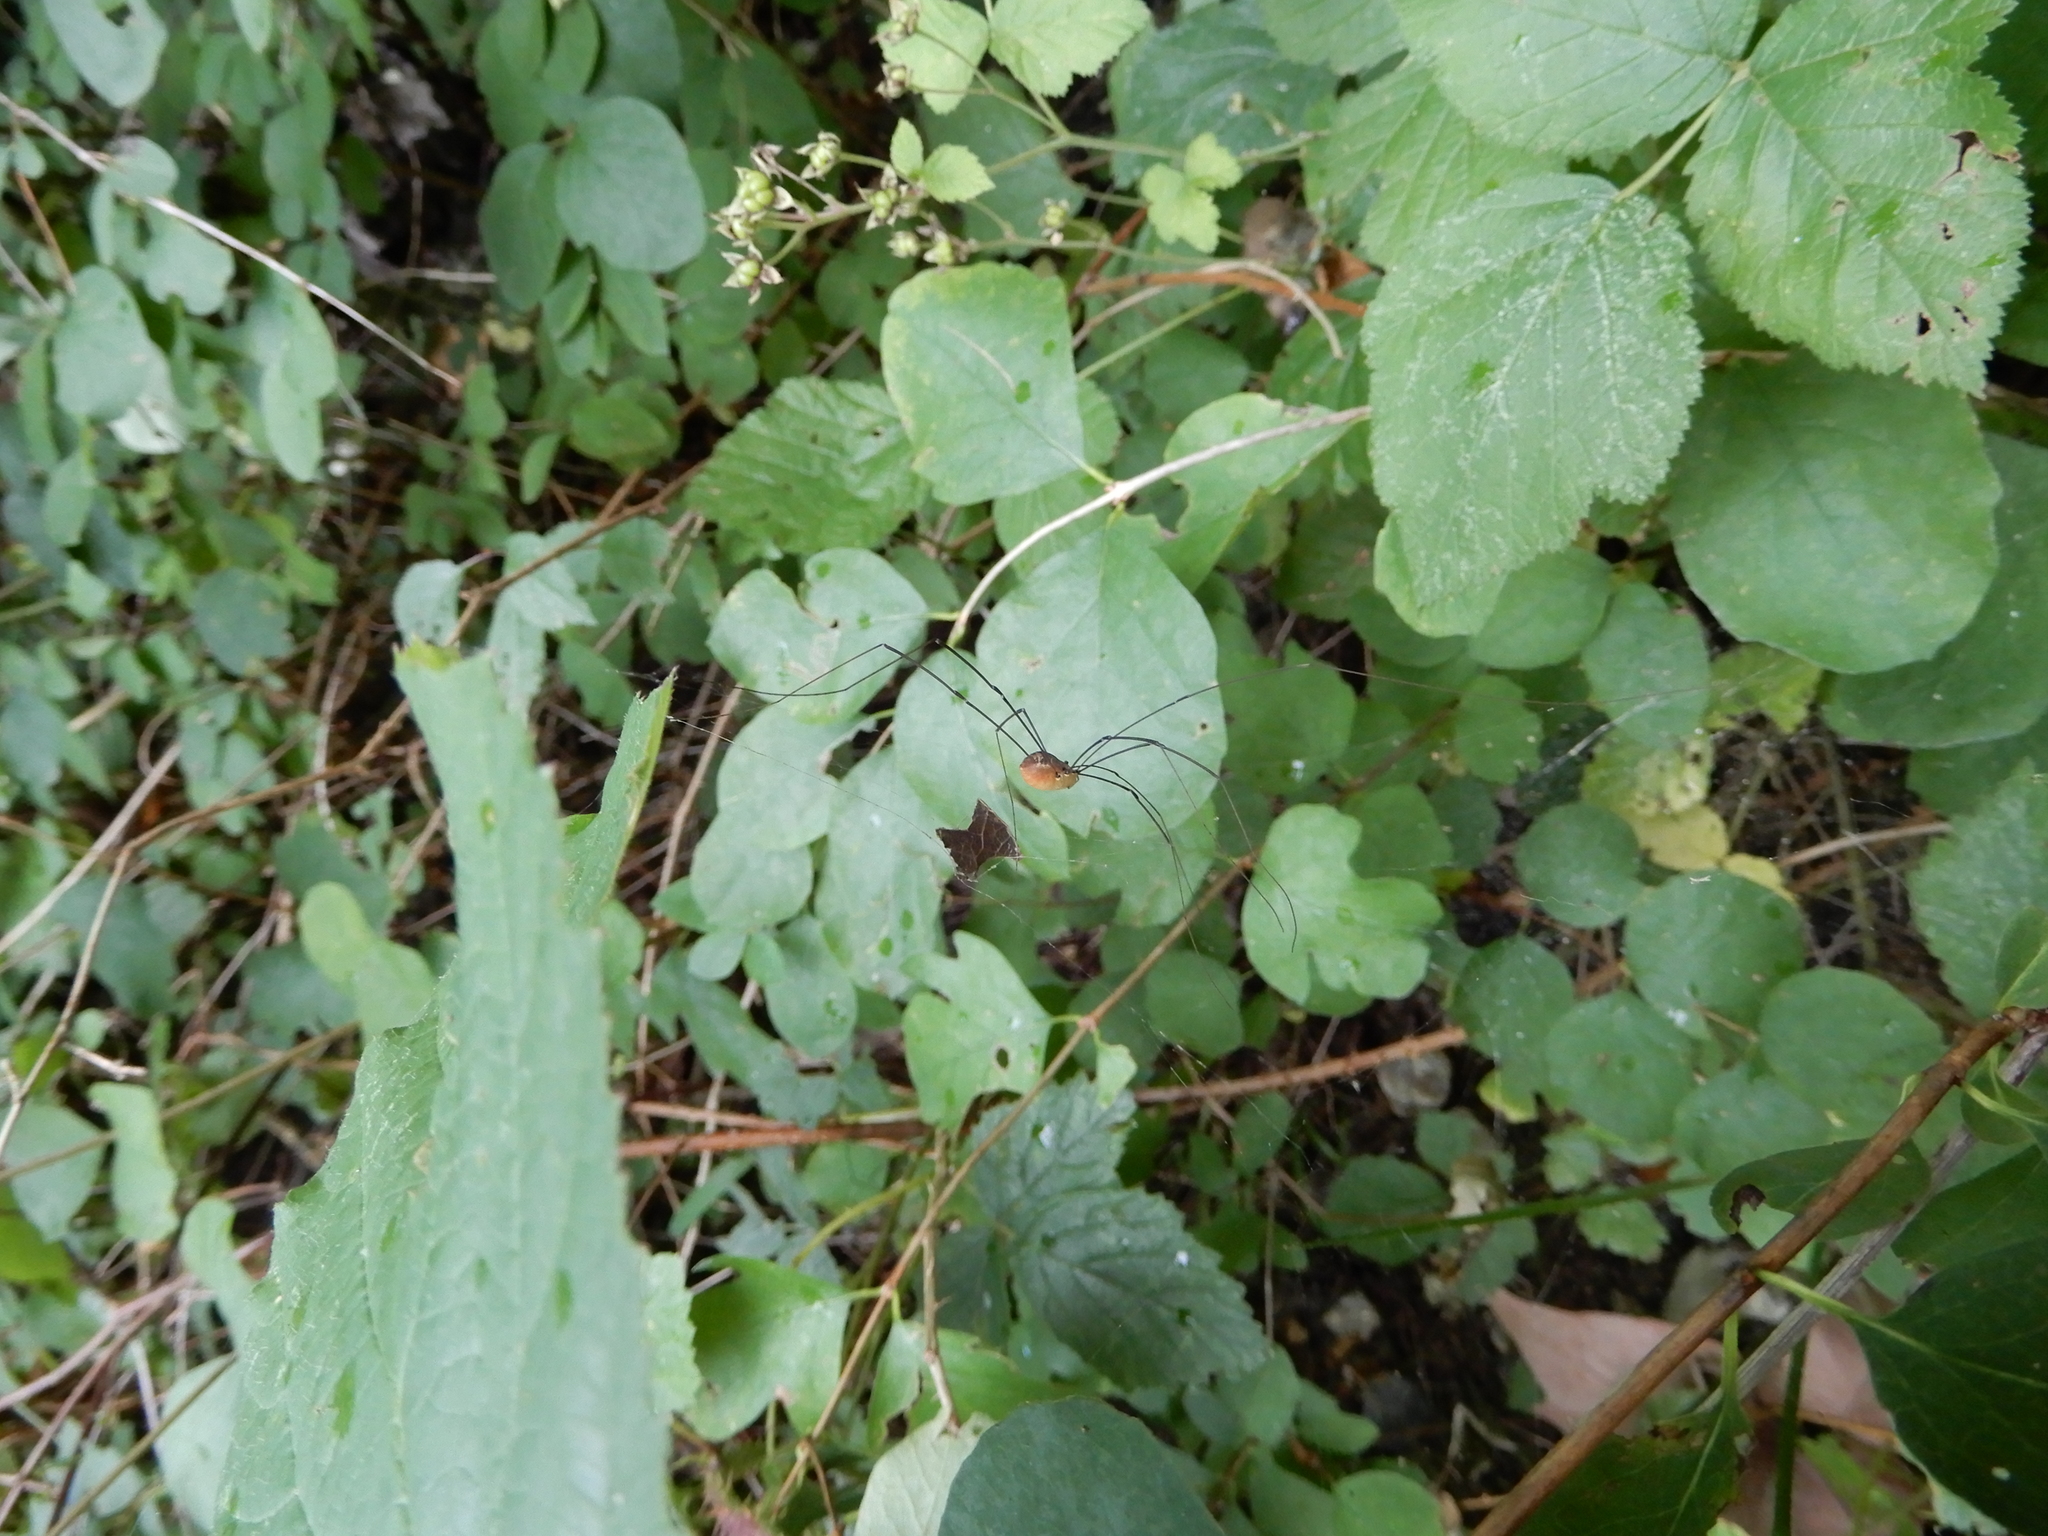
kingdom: Animalia
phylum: Arthropoda
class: Arachnida
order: Opiliones
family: Sclerosomatidae
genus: Leiobunum
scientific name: Leiobunum rotundum
